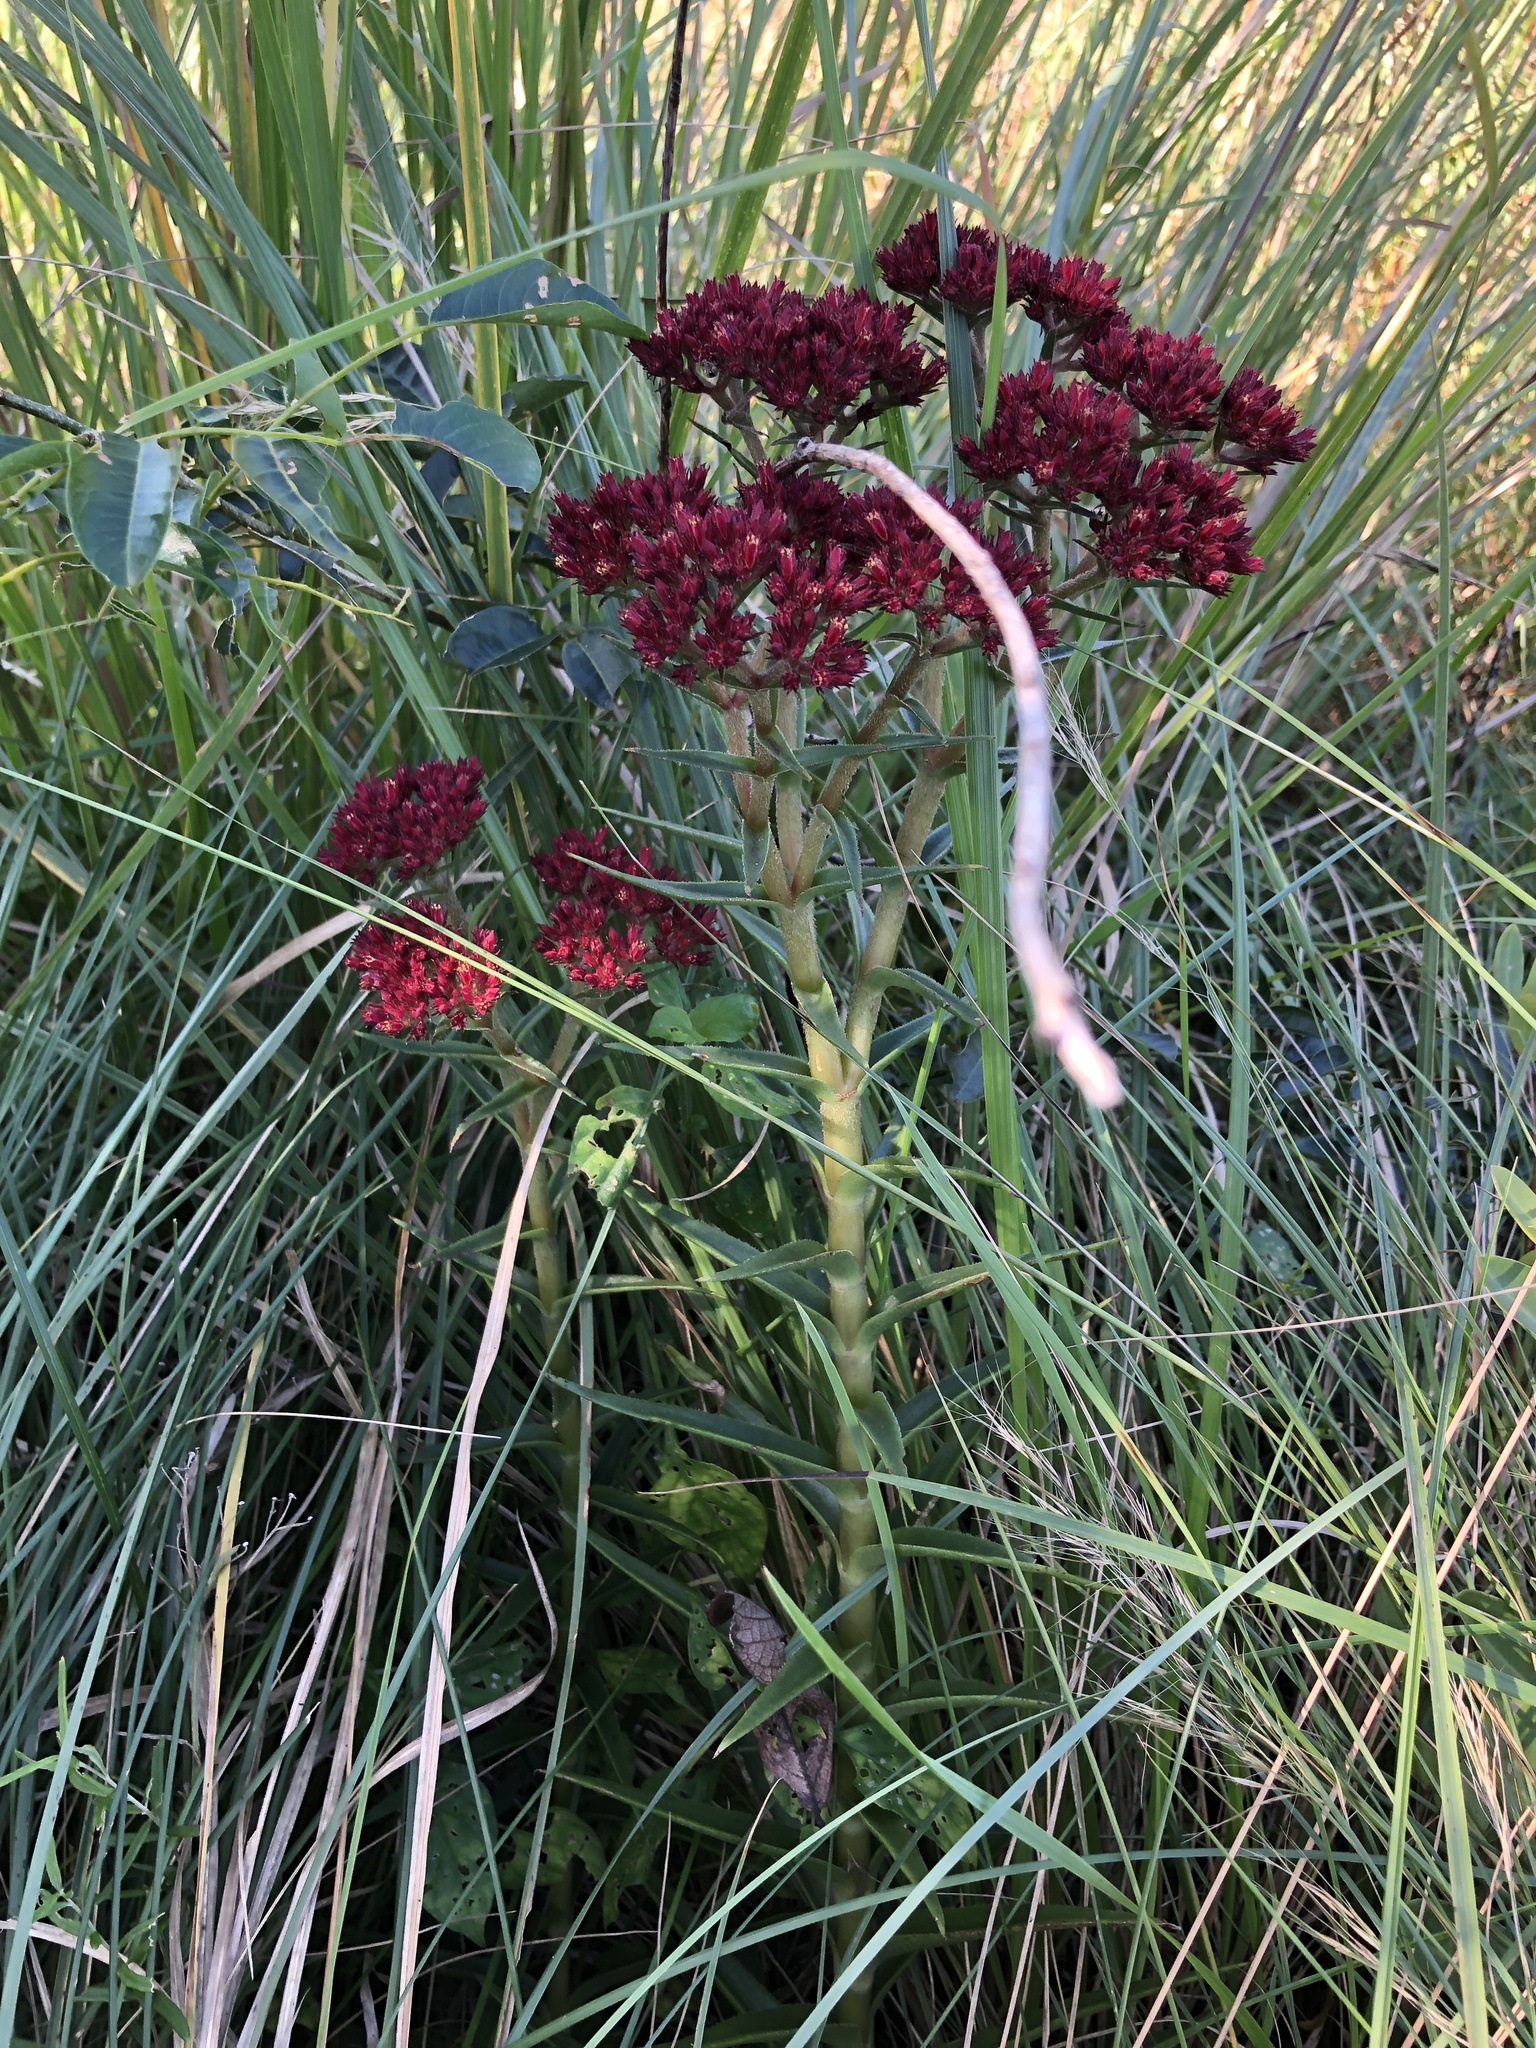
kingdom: Plantae
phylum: Tracheophyta
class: Magnoliopsida
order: Saxifragales
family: Crassulaceae
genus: Crassula
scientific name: Crassula alba
